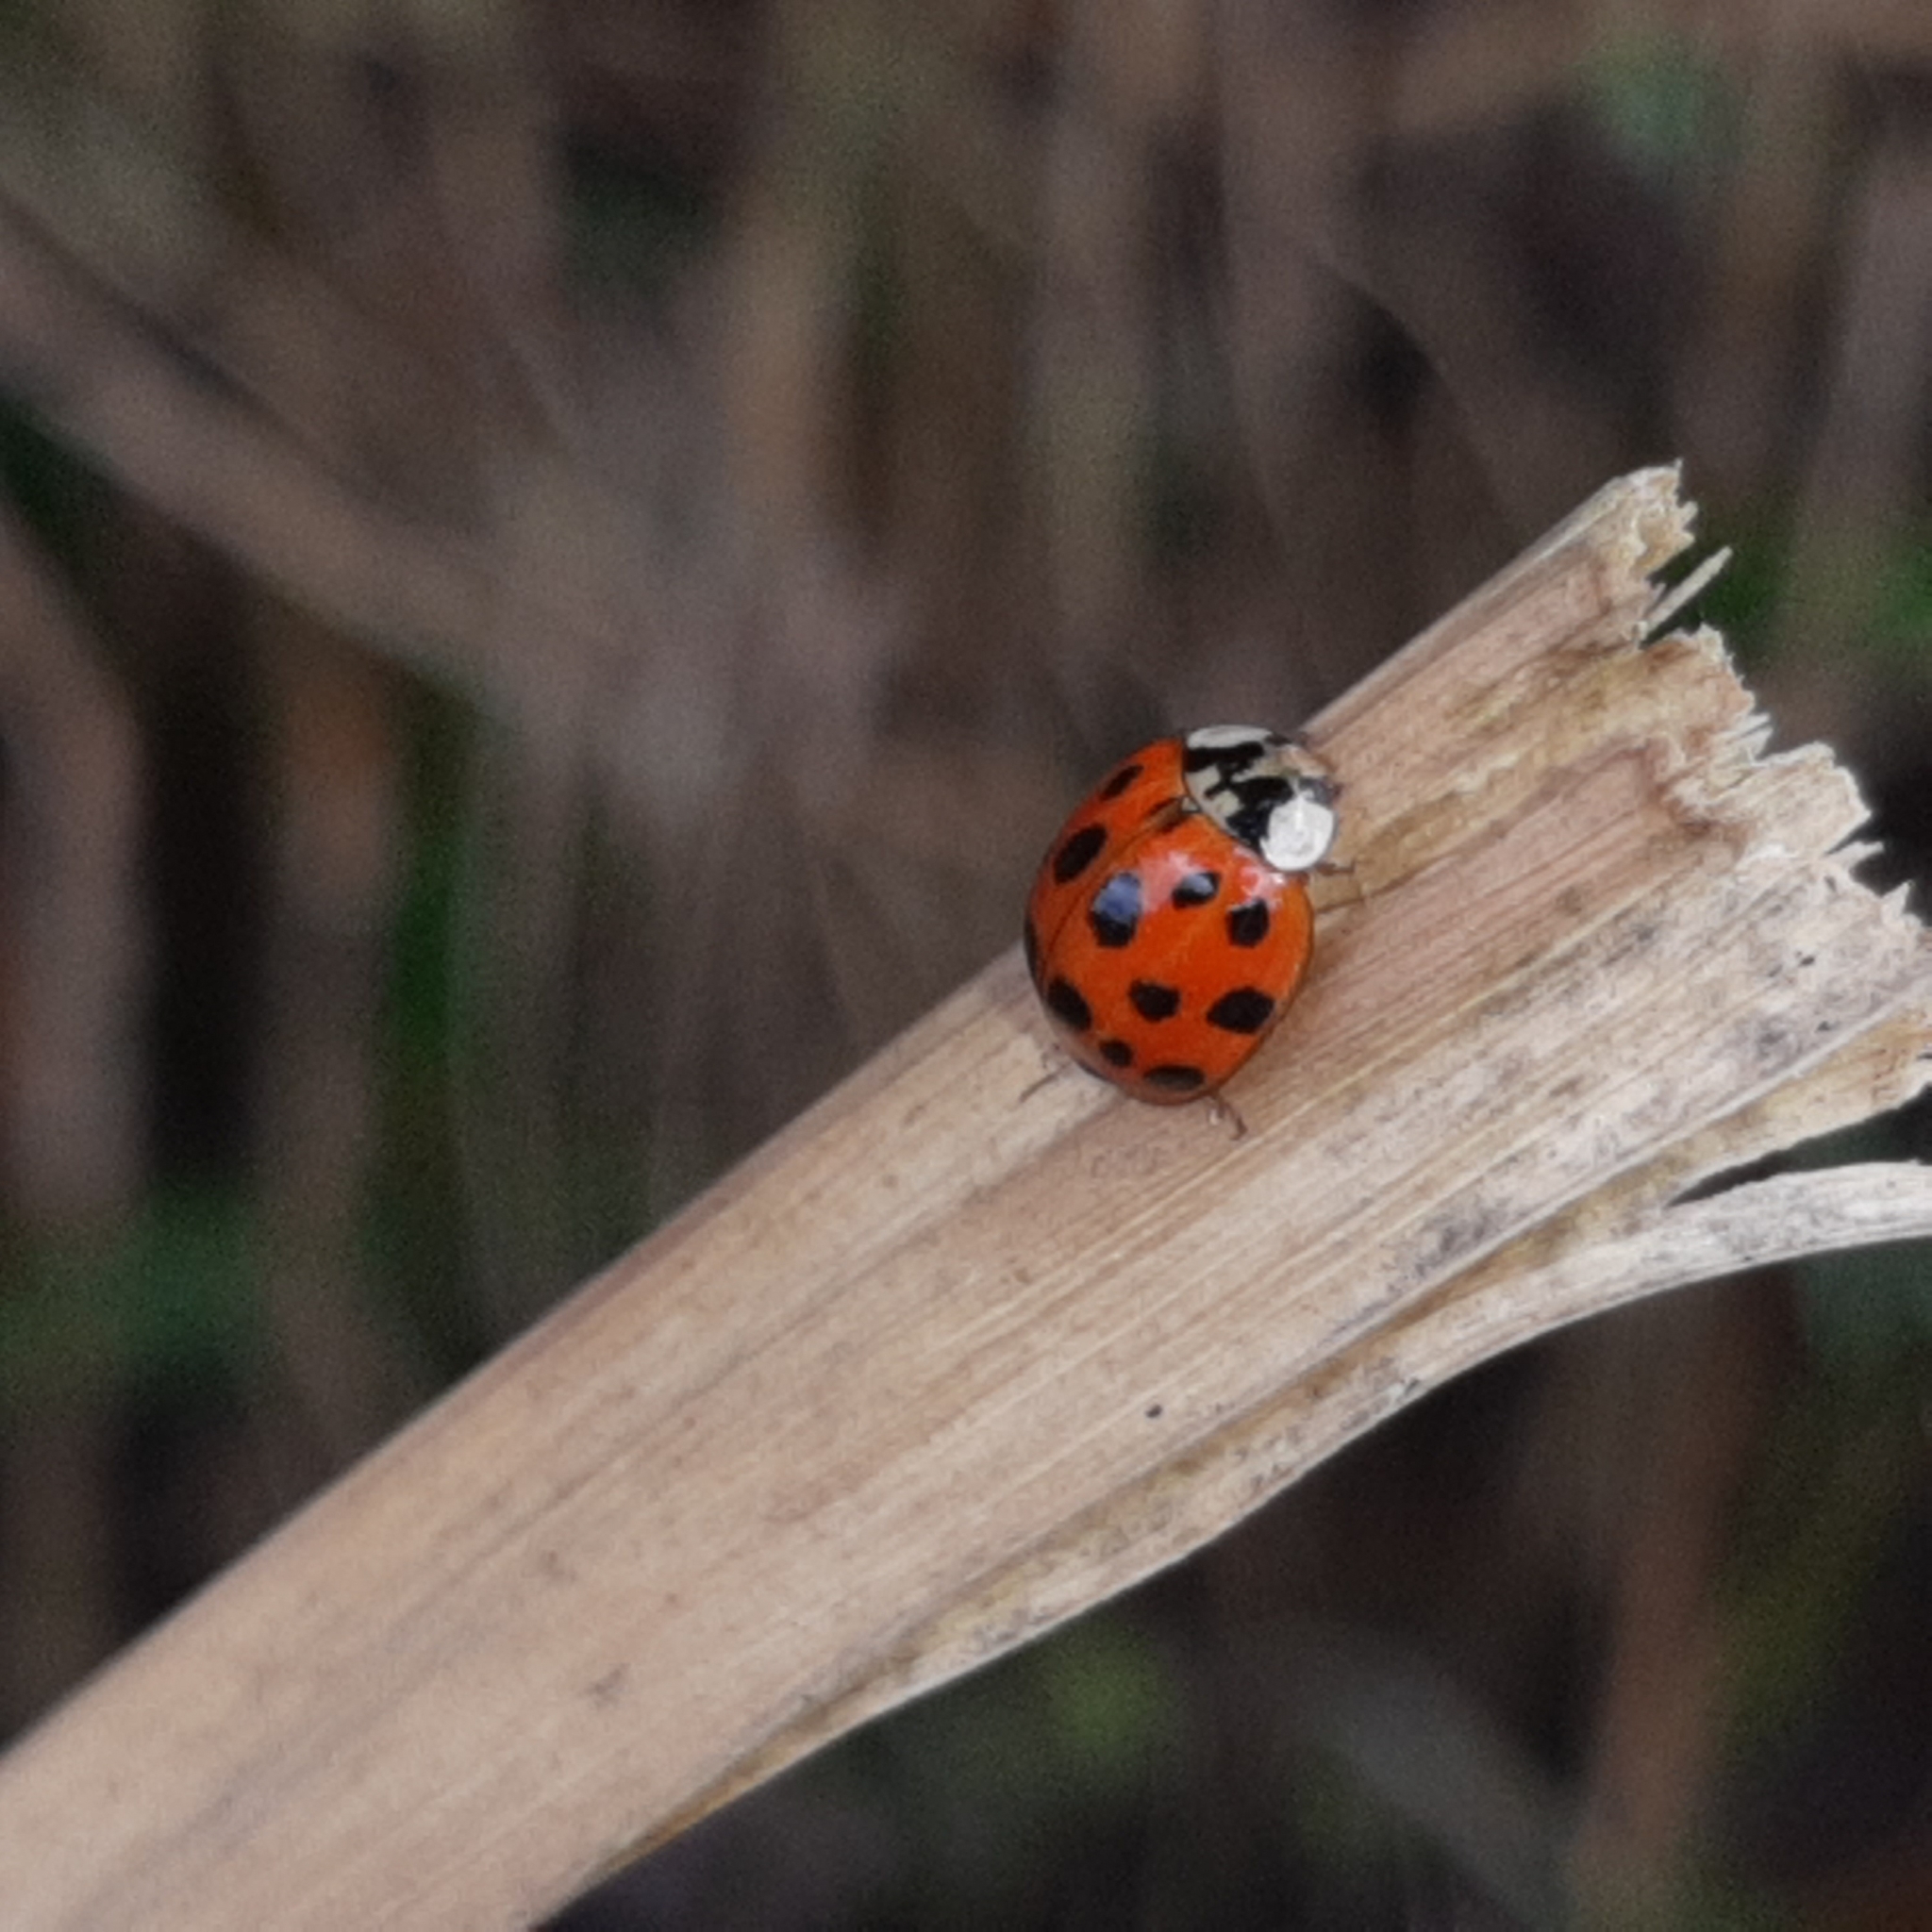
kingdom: Animalia
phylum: Arthropoda
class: Insecta
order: Coleoptera
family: Coccinellidae
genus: Harmonia
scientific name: Harmonia axyridis
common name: Harlequin ladybird
